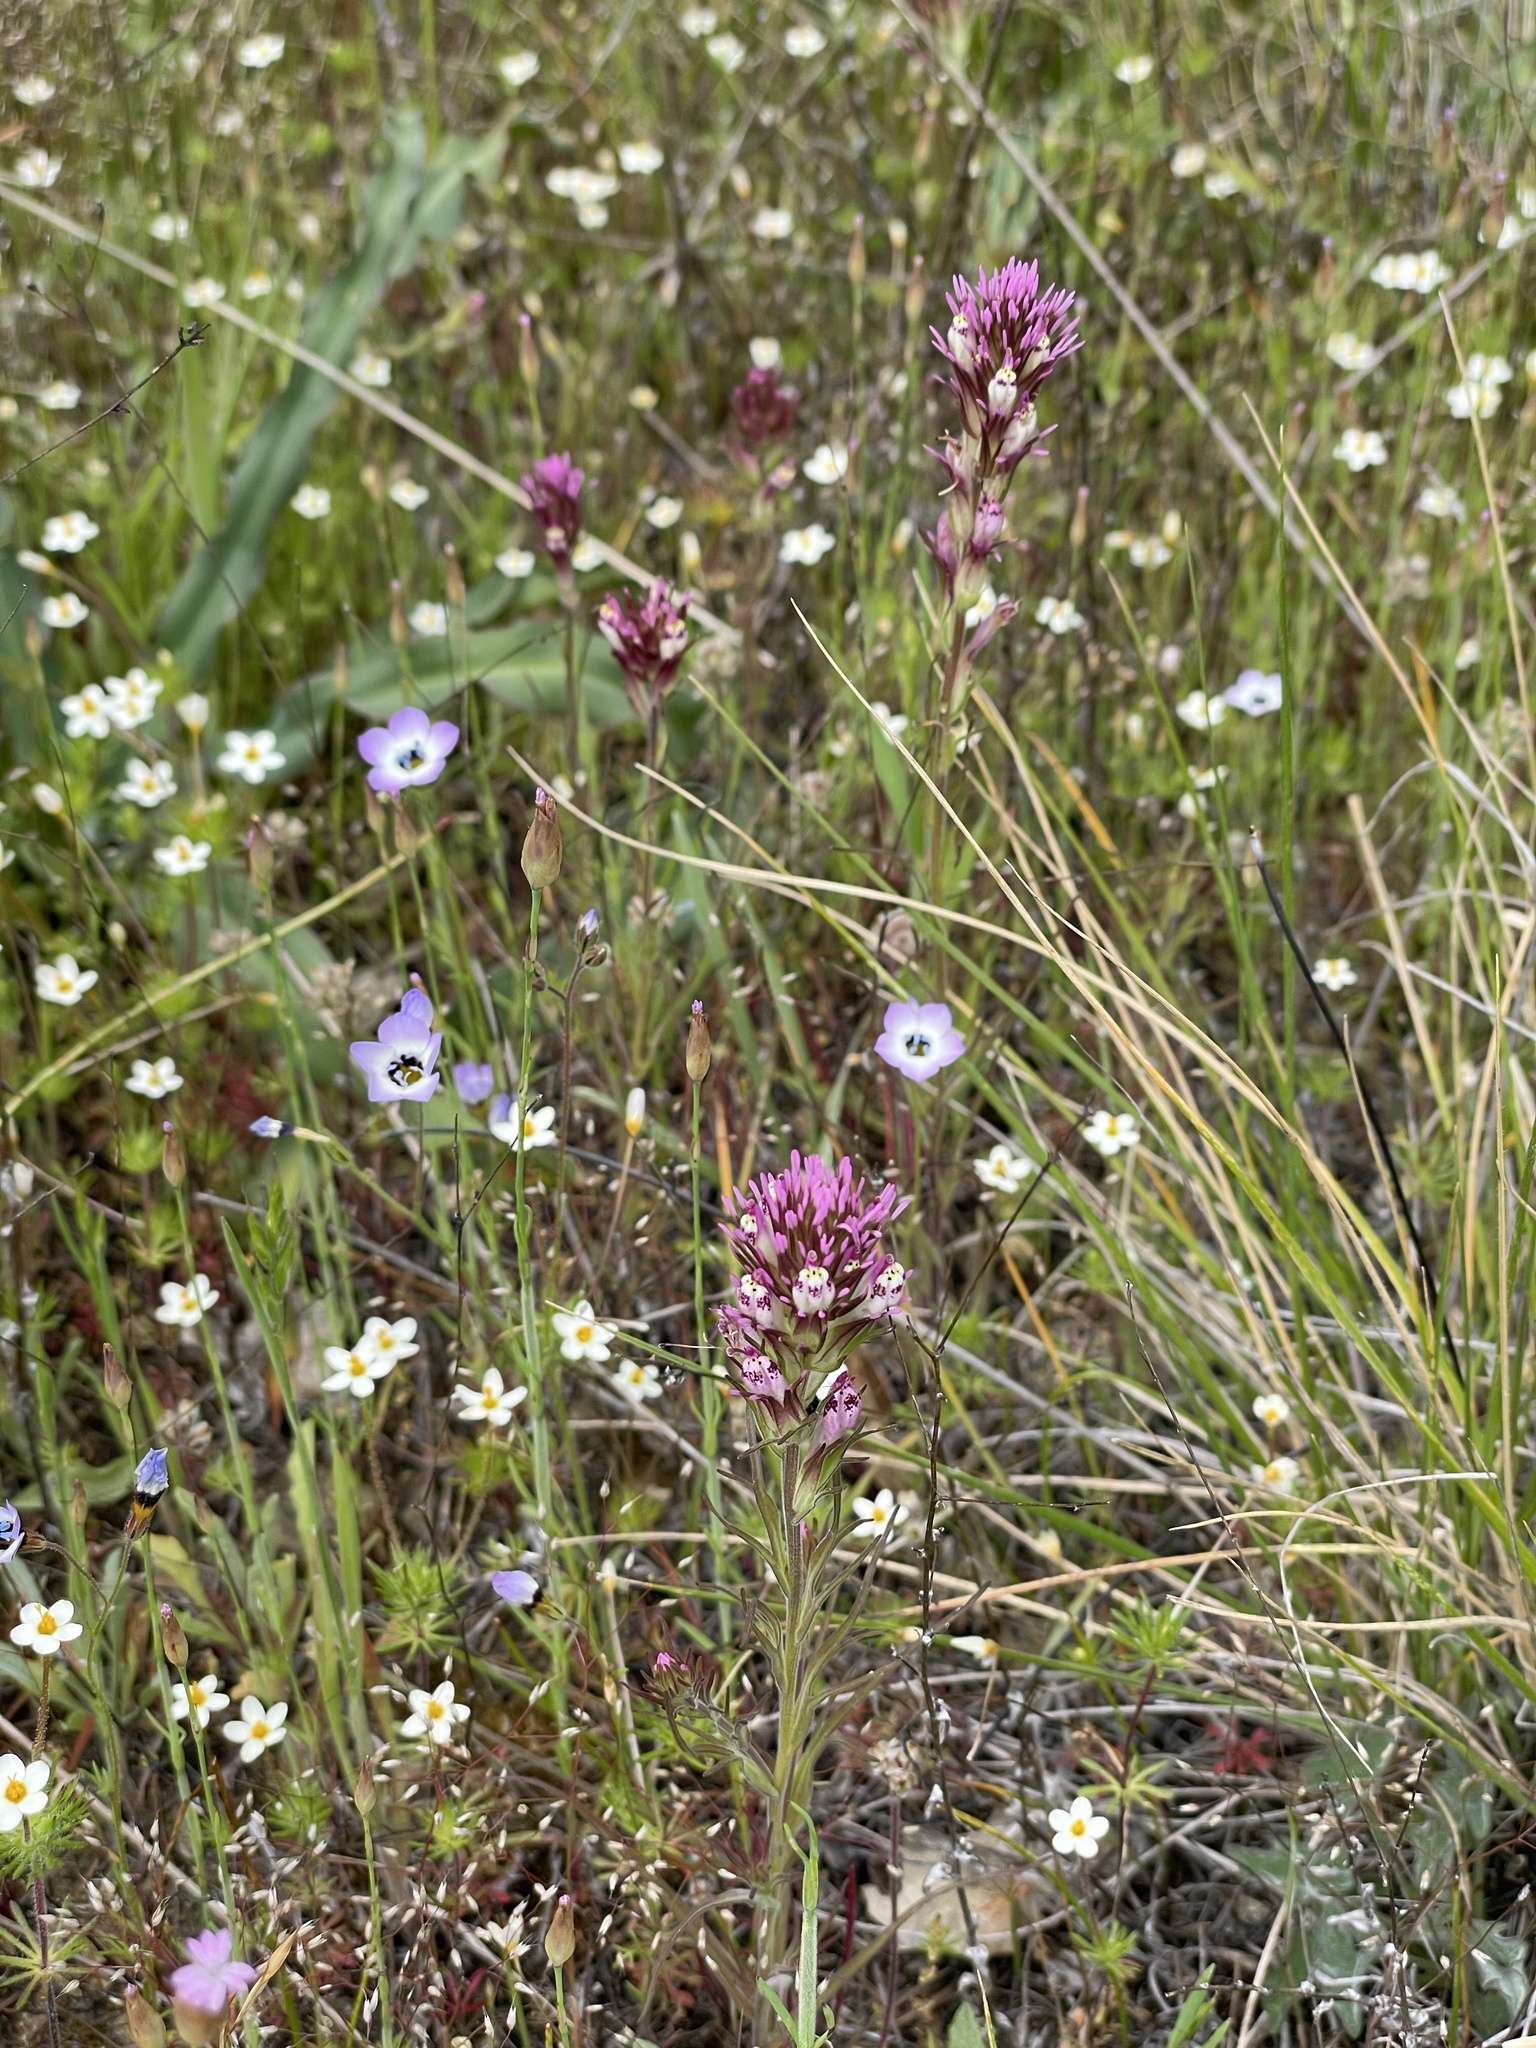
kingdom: Plantae
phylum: Tracheophyta
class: Magnoliopsida
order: Lamiales
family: Orobanchaceae
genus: Castilleja
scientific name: Castilleja densiflora
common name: Dense-flower indian paintbrush
